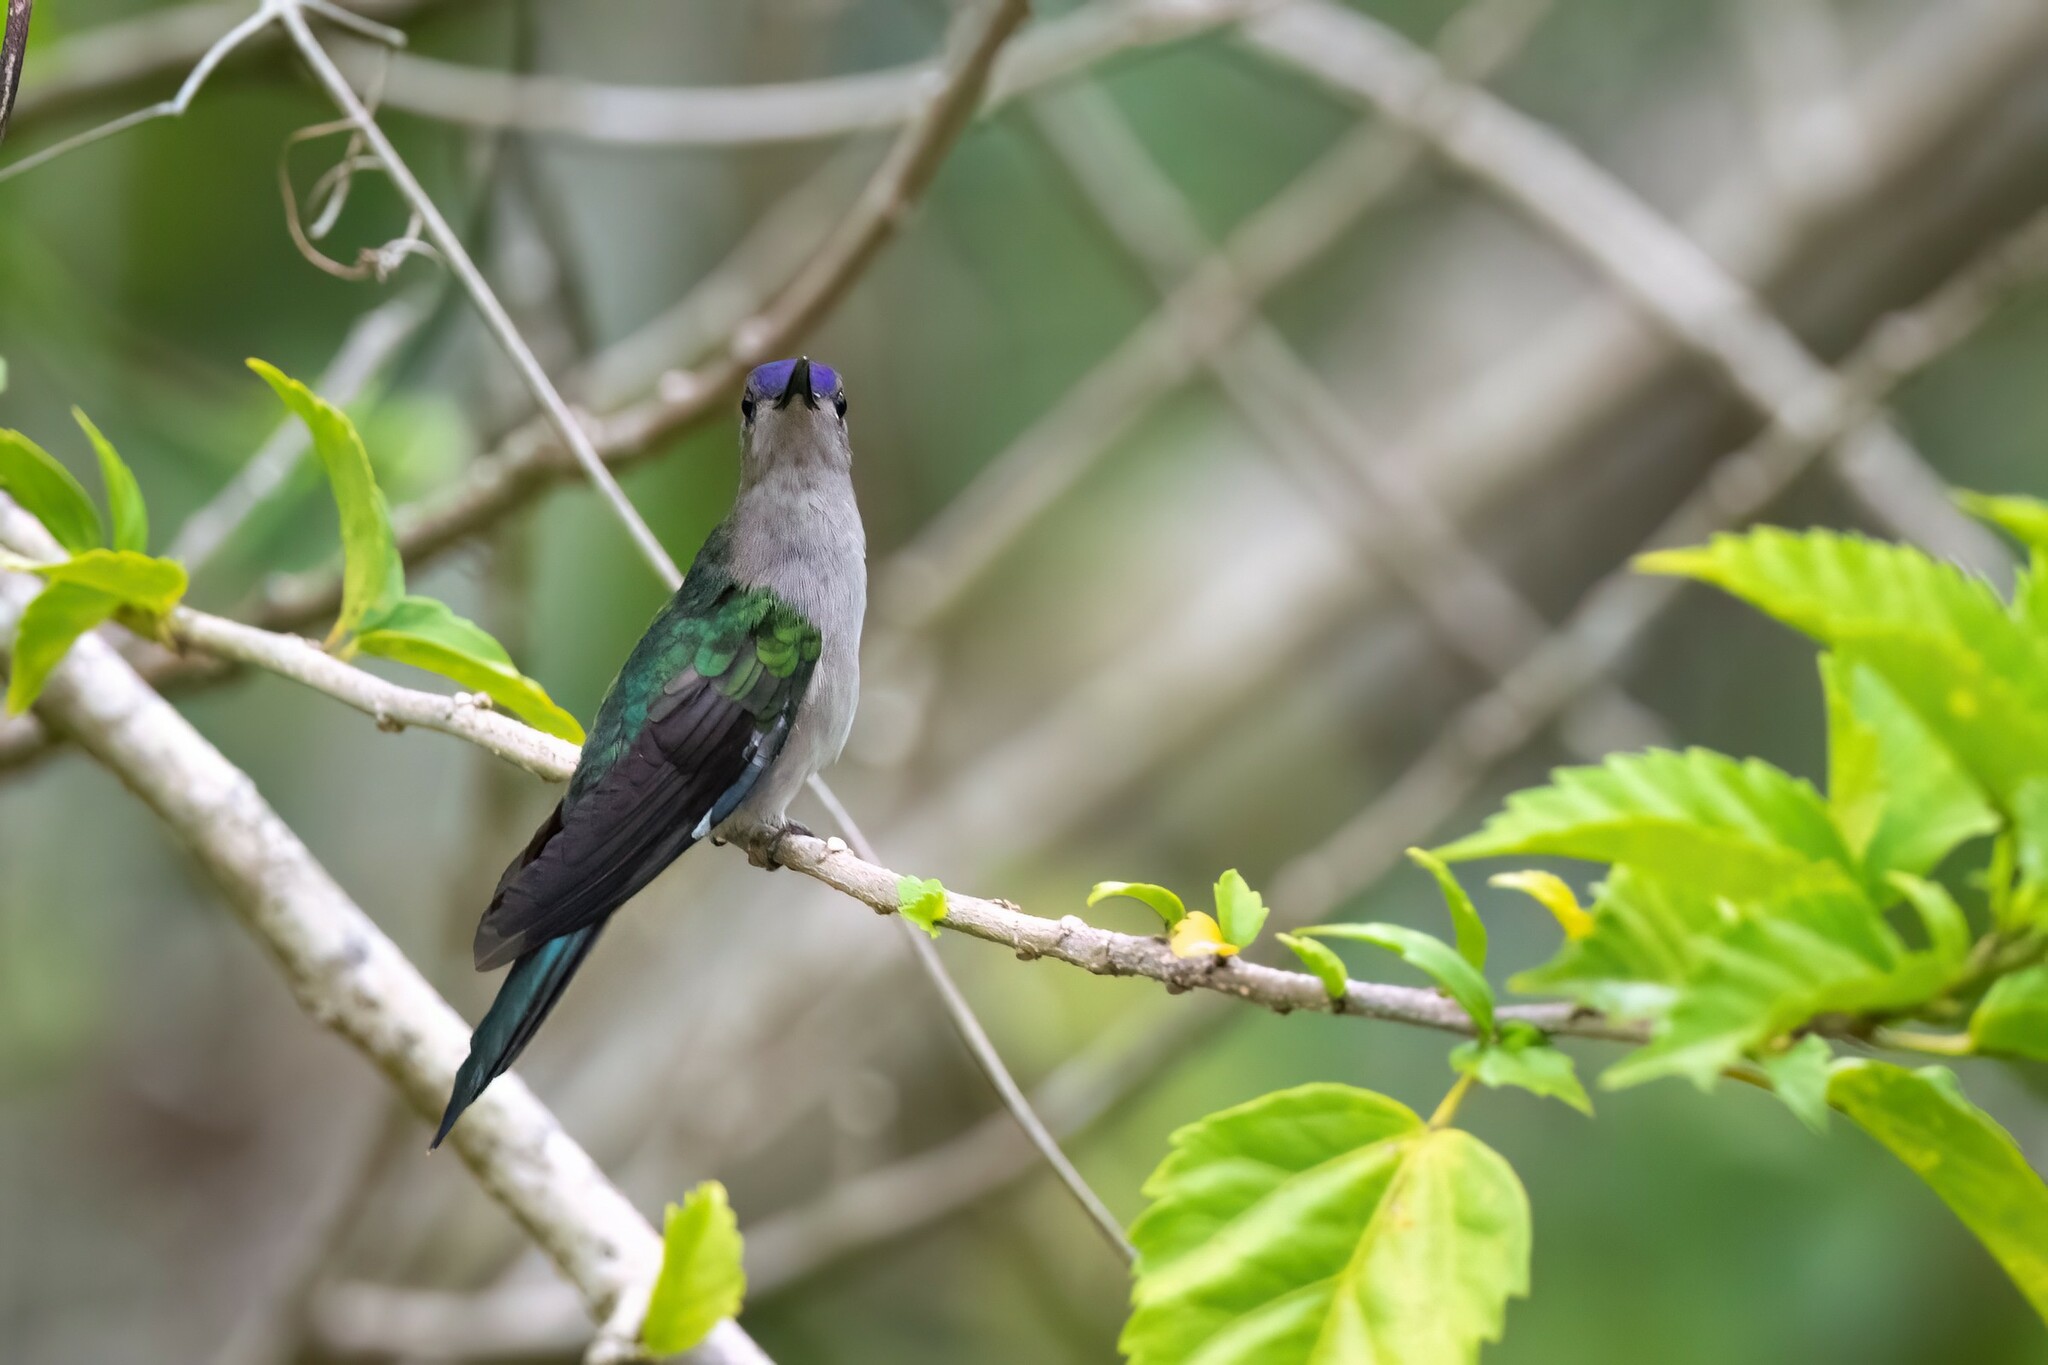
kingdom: Animalia
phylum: Chordata
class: Aves
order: Apodiformes
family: Trochilidae
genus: Pampa
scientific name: Pampa curvipennis
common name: Curve-winged sabrewing
